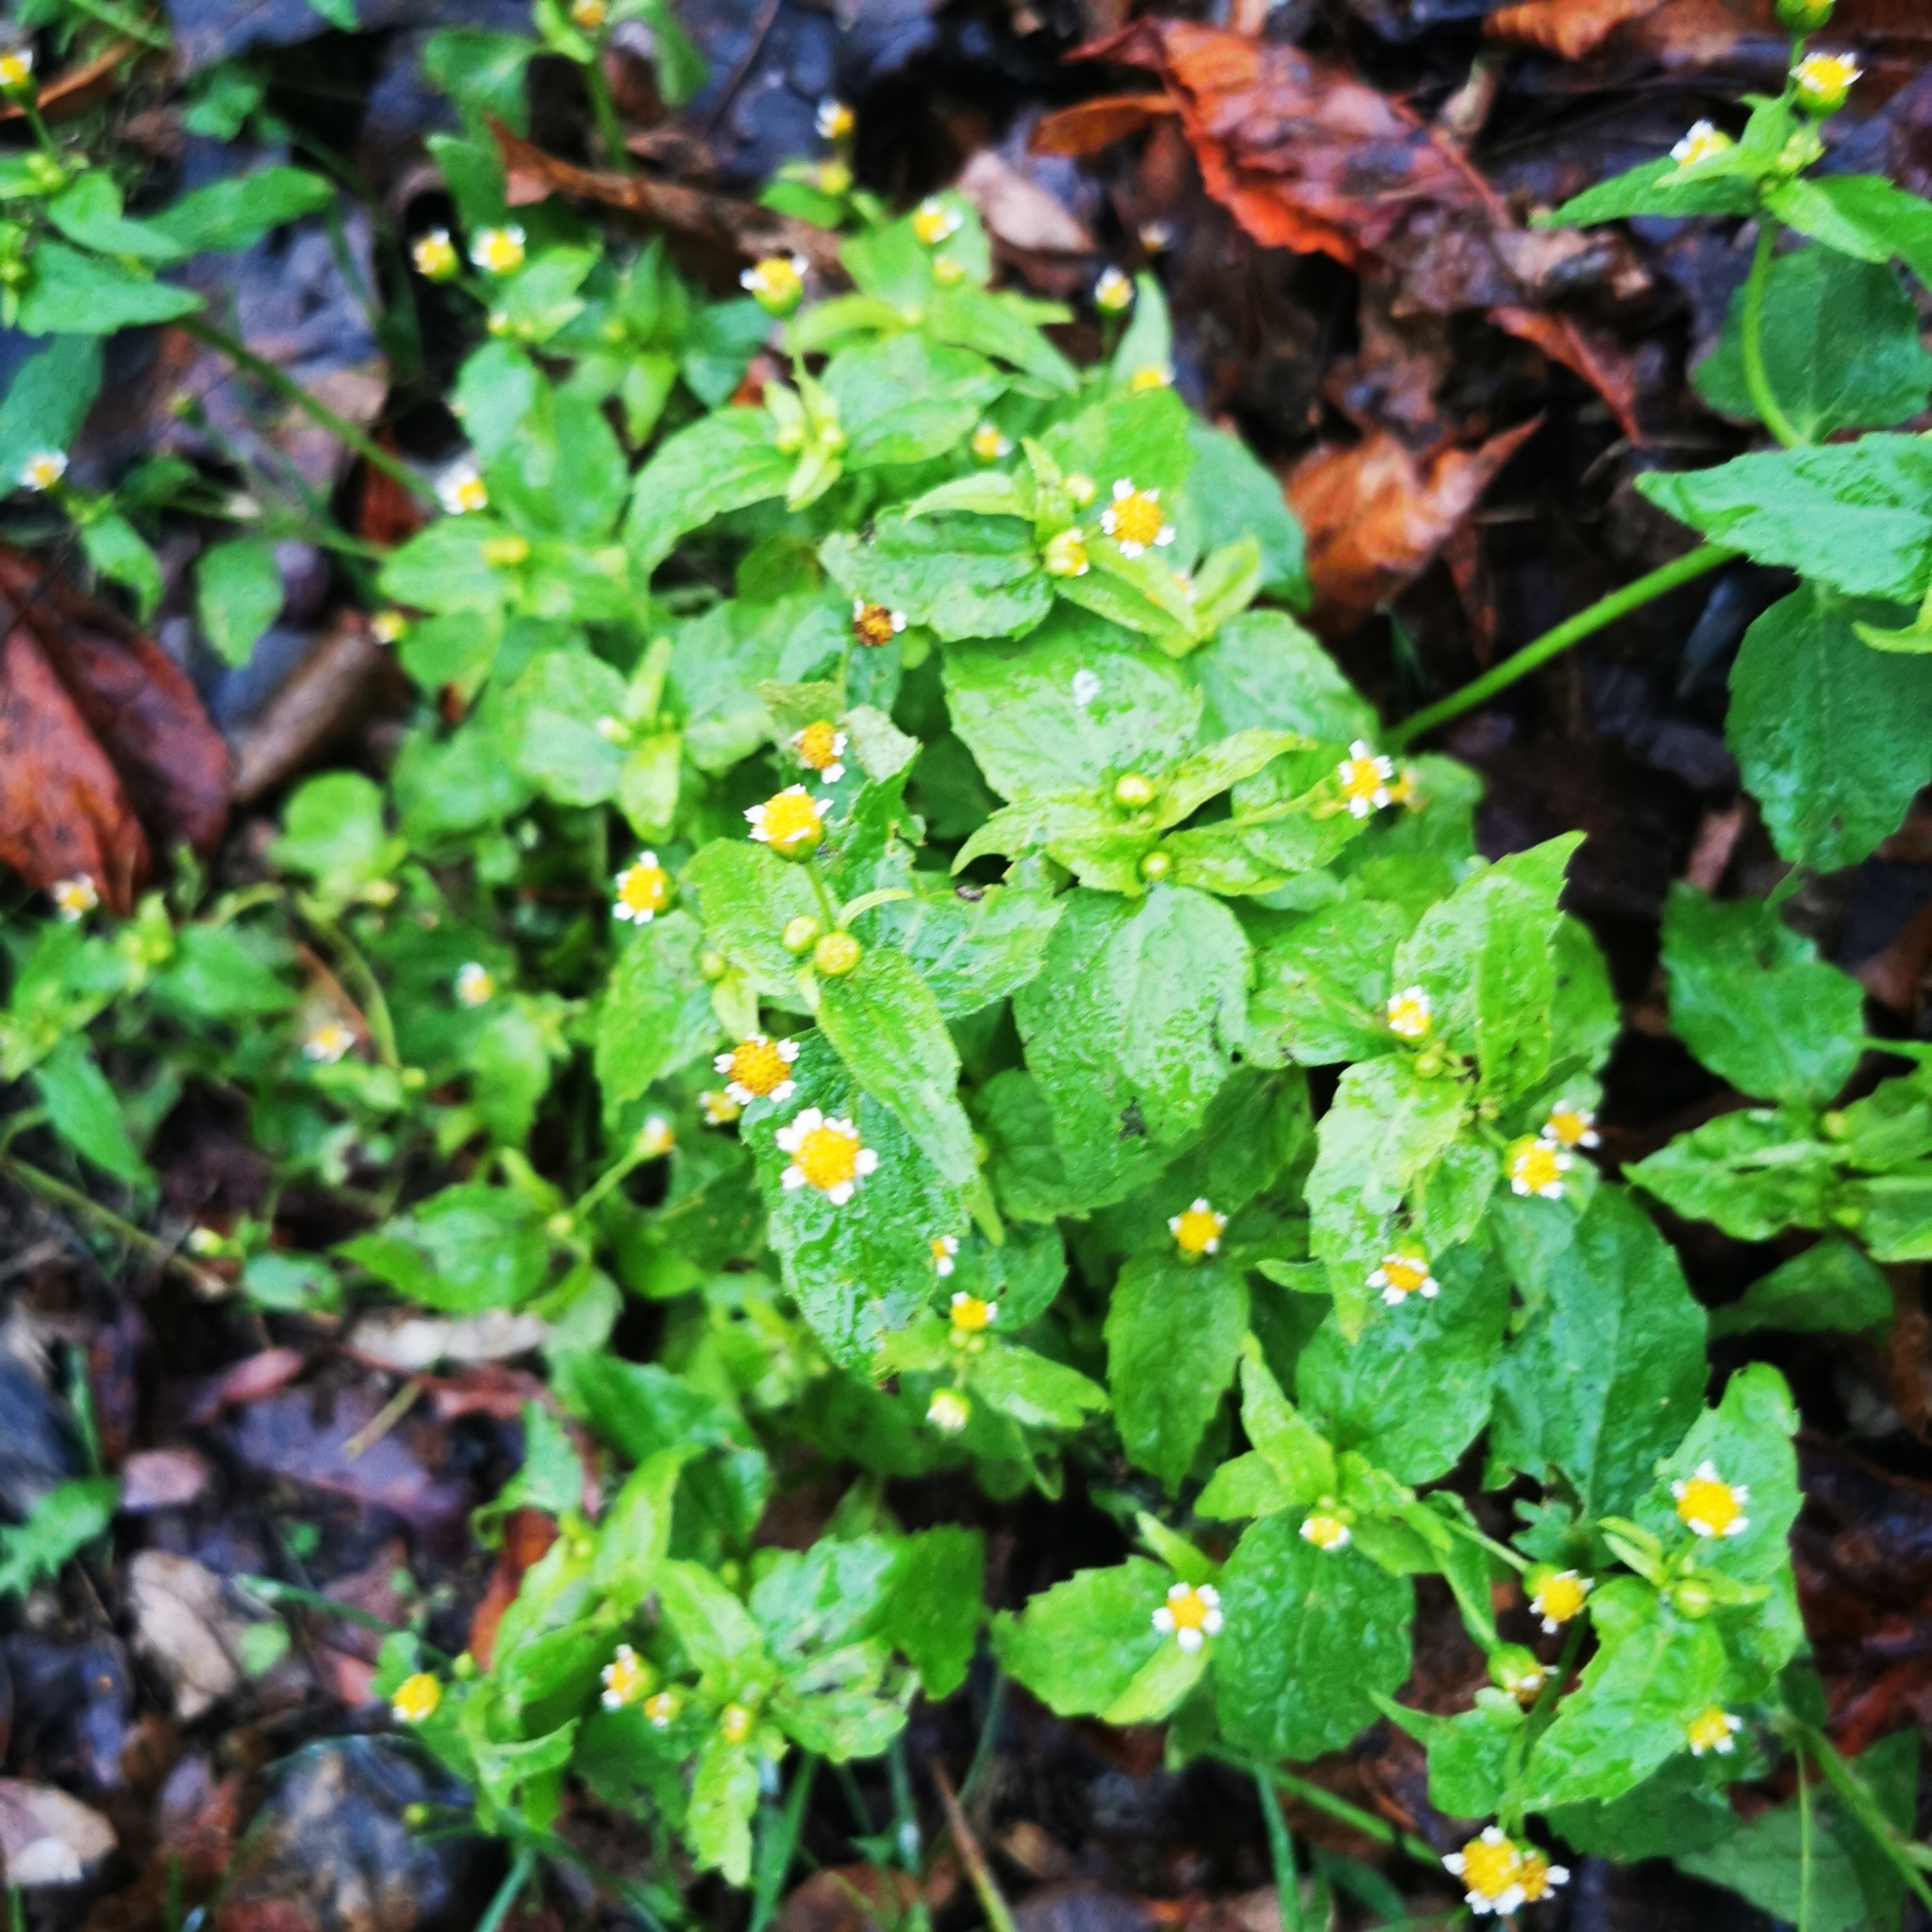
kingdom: Plantae
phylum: Tracheophyta
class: Magnoliopsida
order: Asterales
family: Asteraceae
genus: Galinsoga
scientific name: Galinsoga quadriradiata
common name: Shaggy soldier
